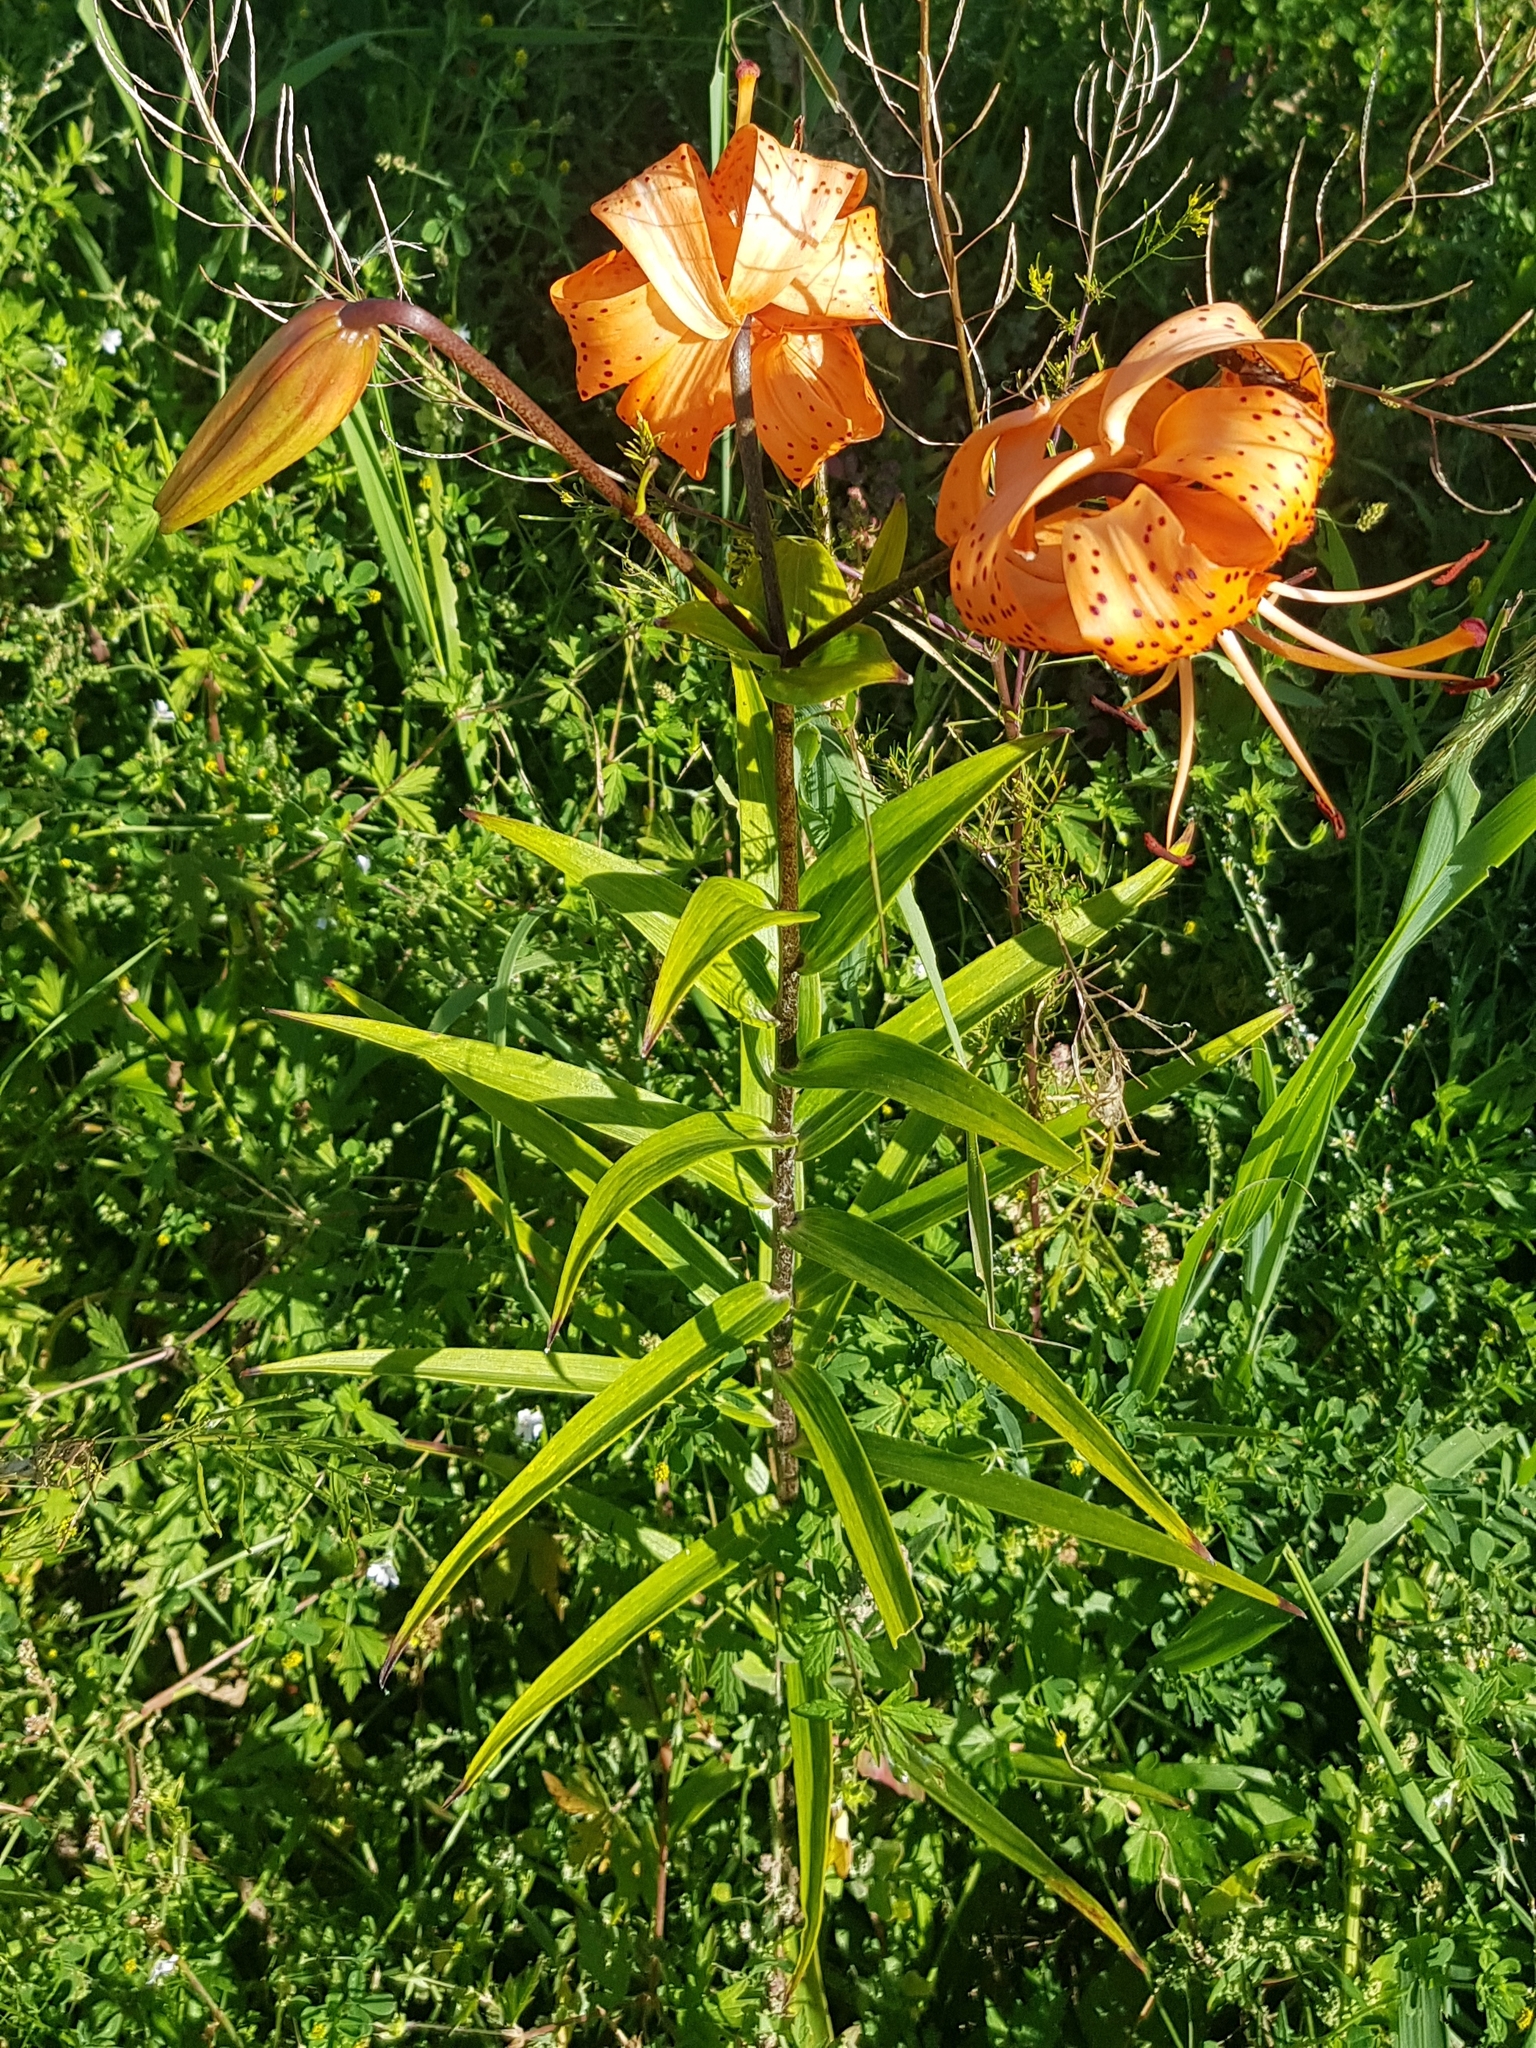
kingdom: Plantae
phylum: Tracheophyta
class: Liliopsida
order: Liliales
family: Liliaceae
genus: Lilium
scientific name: Lilium pensylvanicum
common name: Candlestick lily
